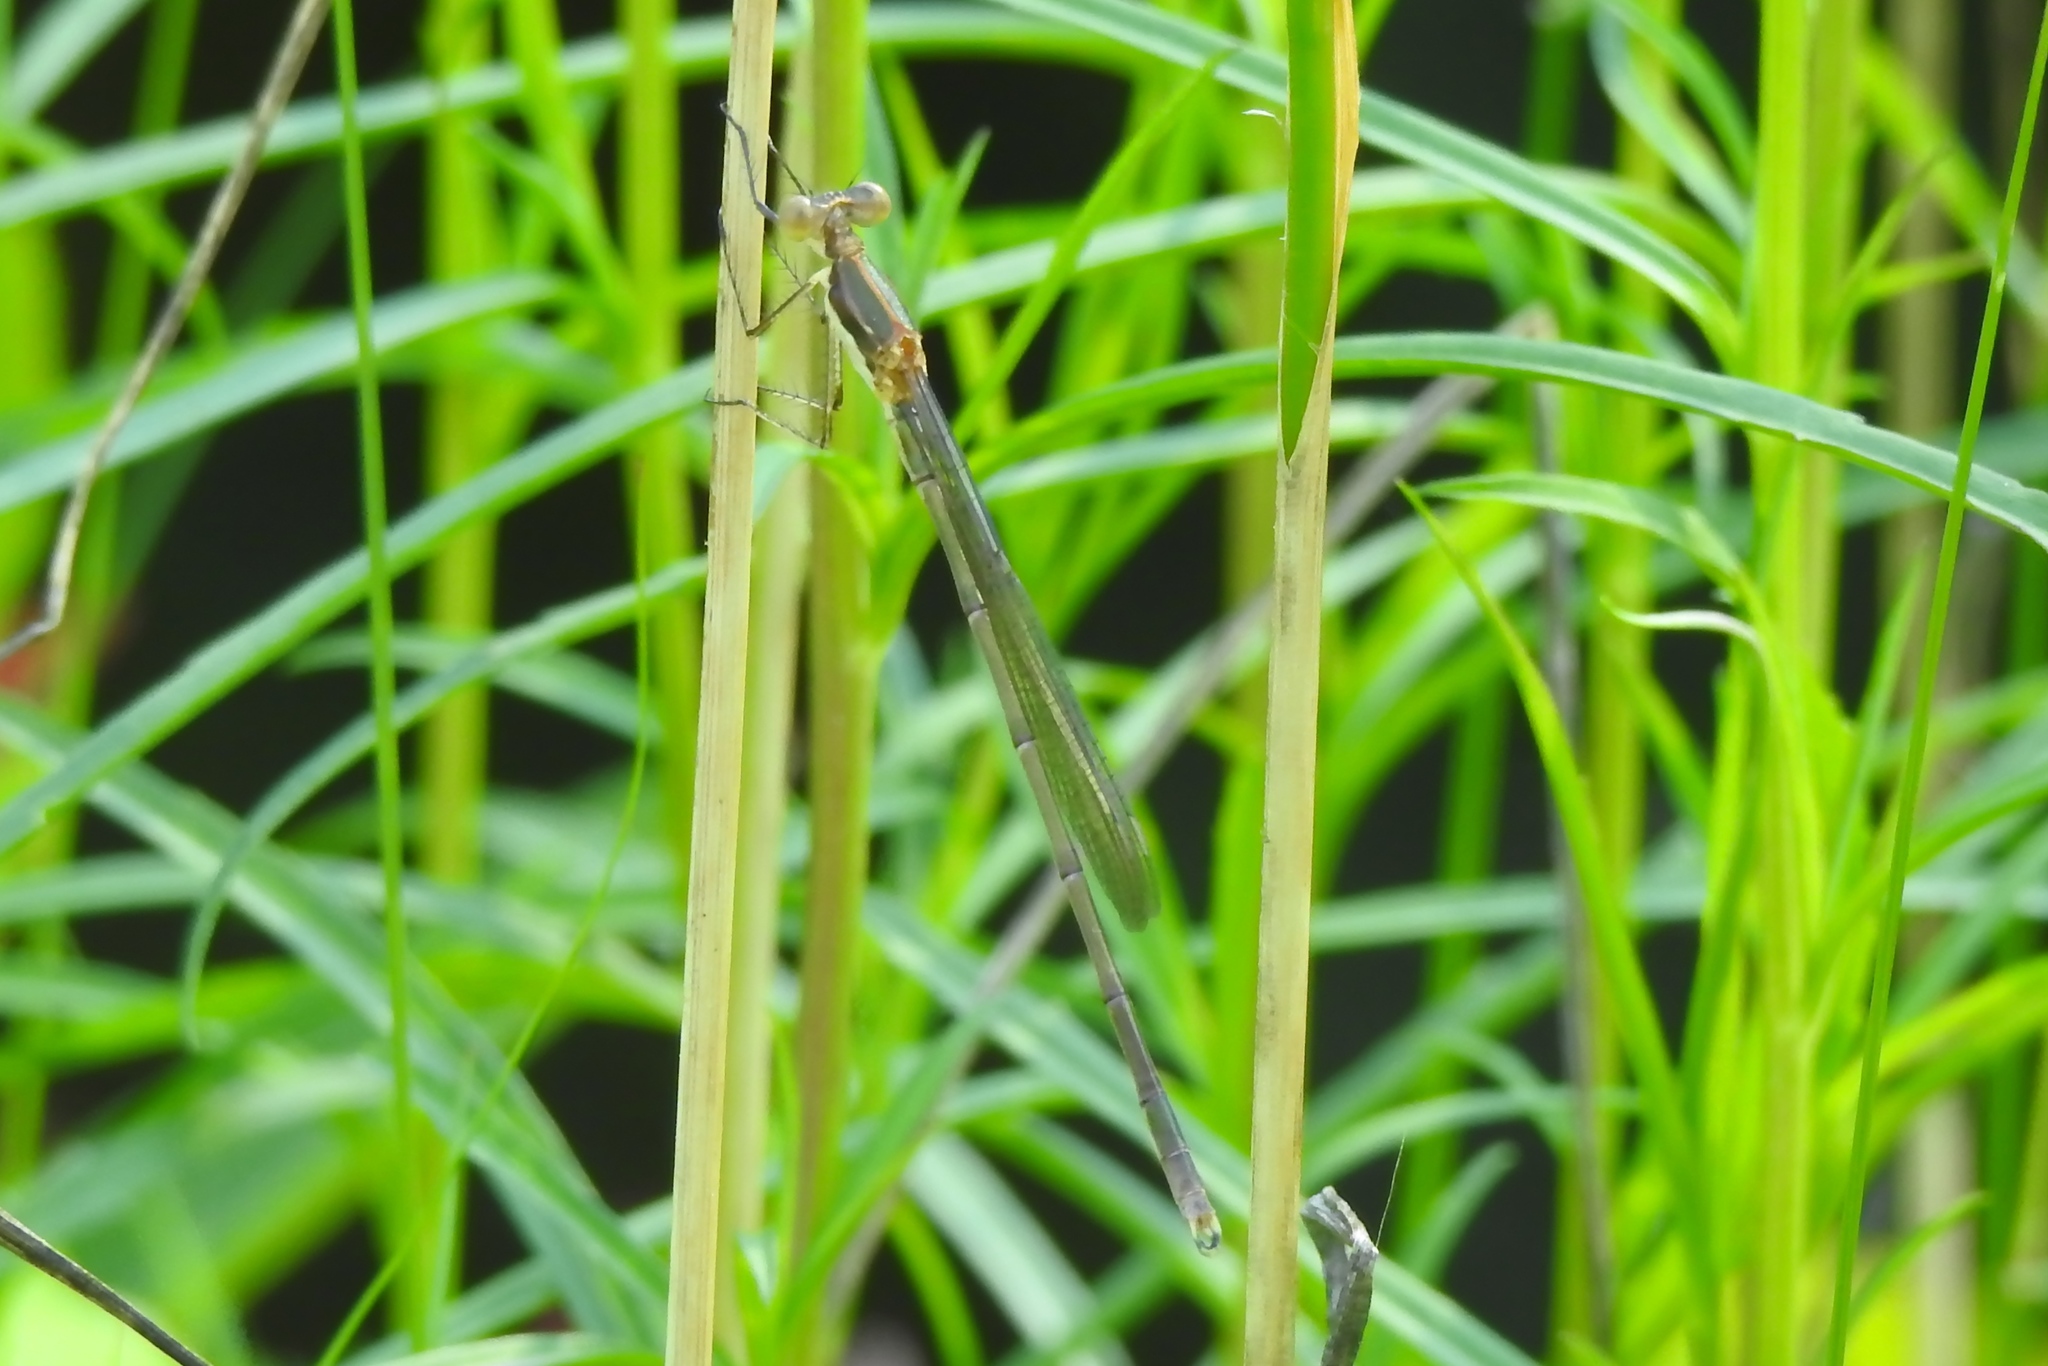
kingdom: Animalia
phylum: Arthropoda
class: Insecta
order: Odonata
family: Lestidae
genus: Lestes
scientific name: Lestes inaequalis
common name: Elegant spreadwing
